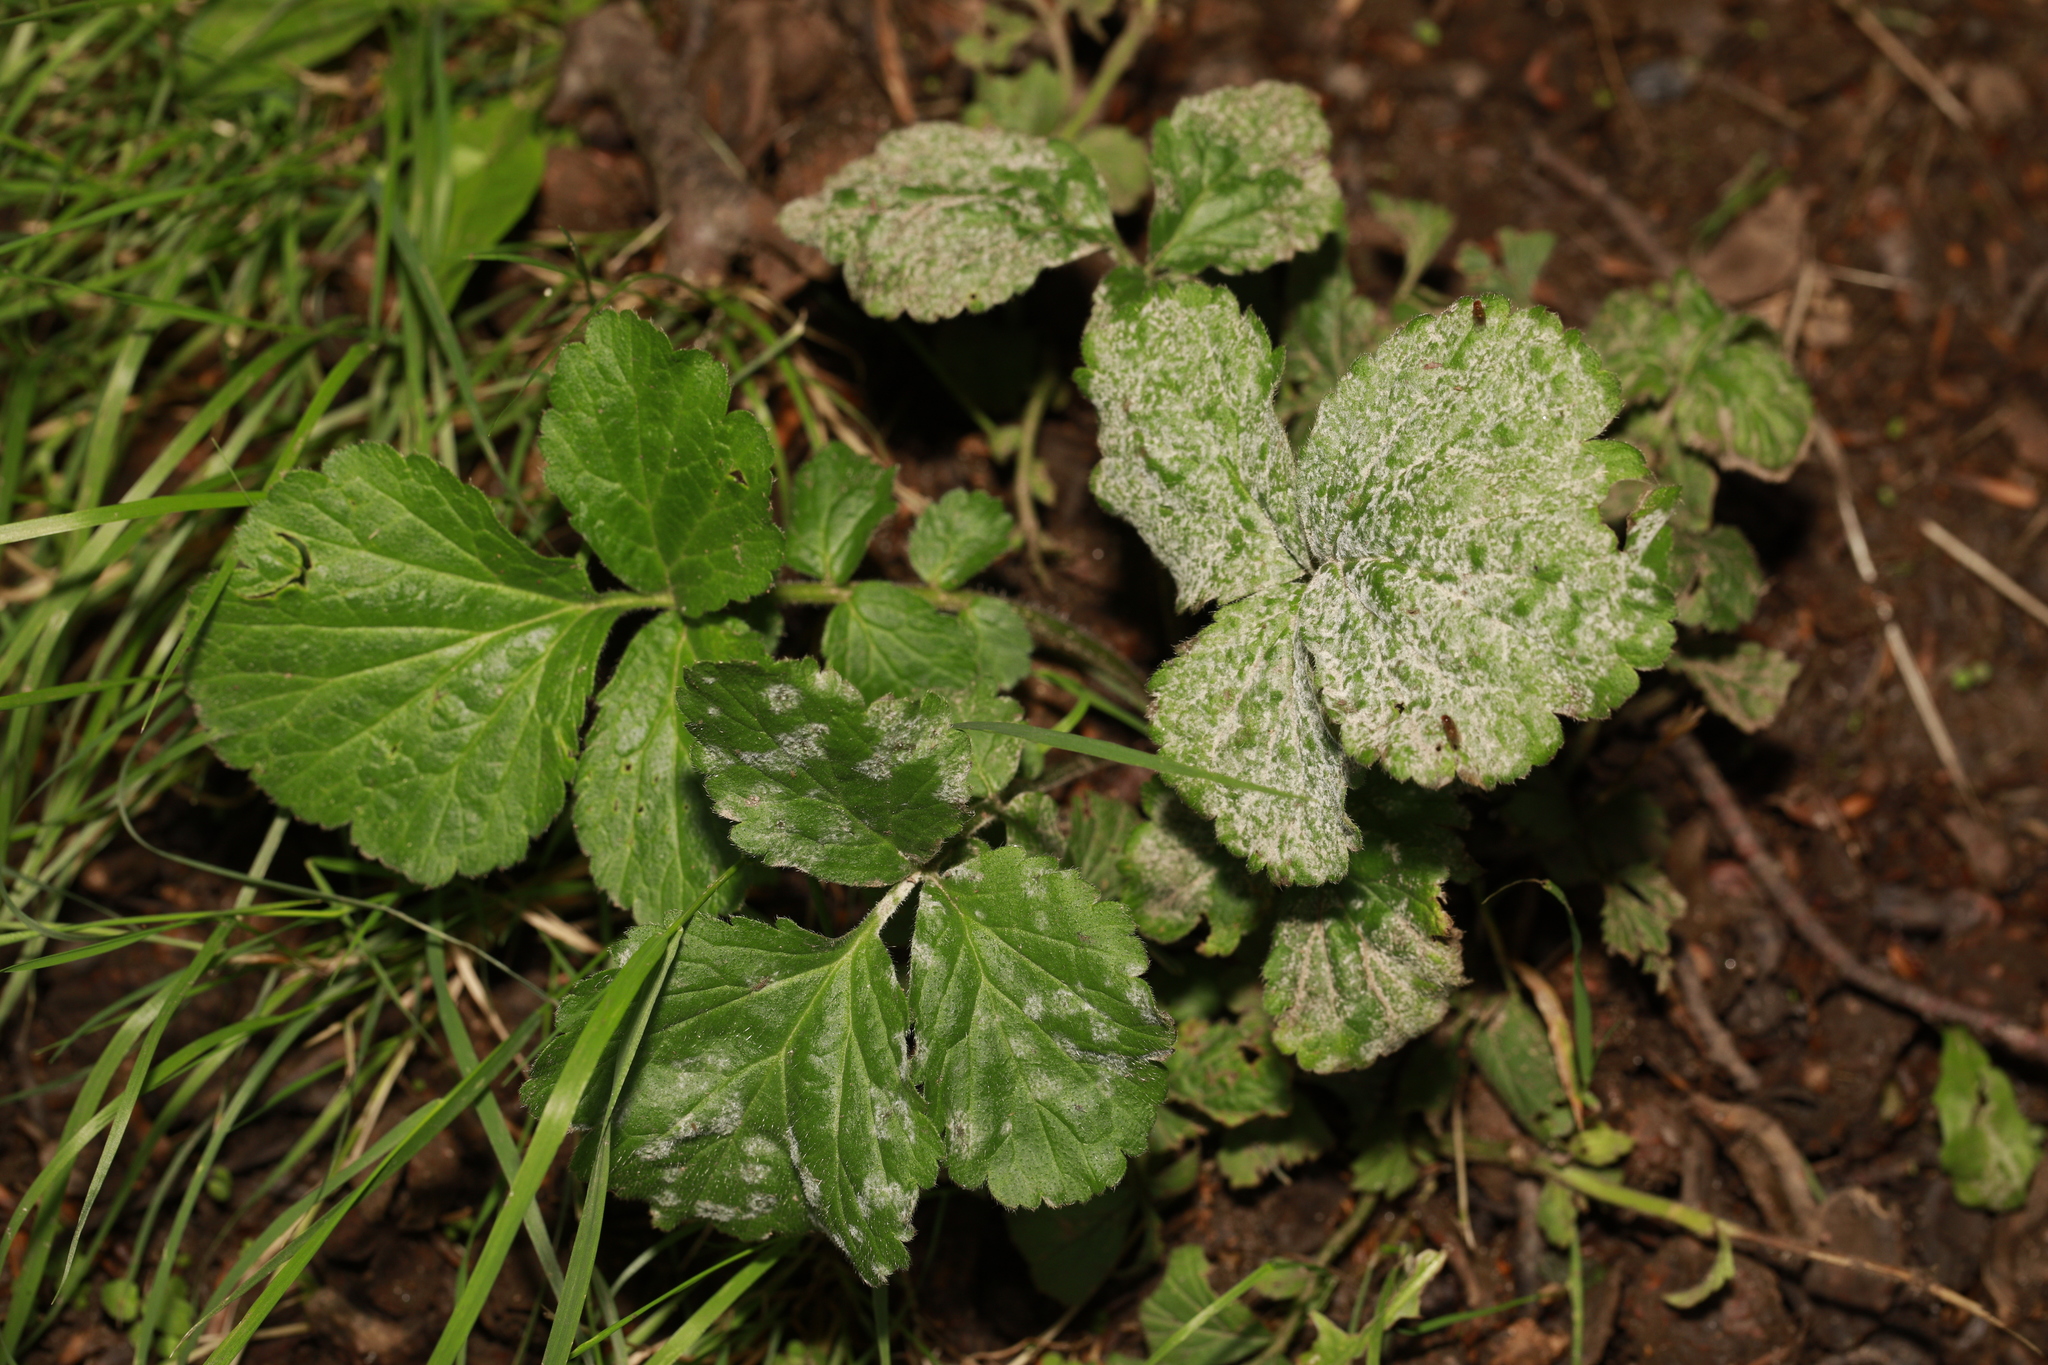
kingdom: Plantae
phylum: Tracheophyta
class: Magnoliopsida
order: Rosales
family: Rosaceae
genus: Geum
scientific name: Geum urbanum
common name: Wood avens
